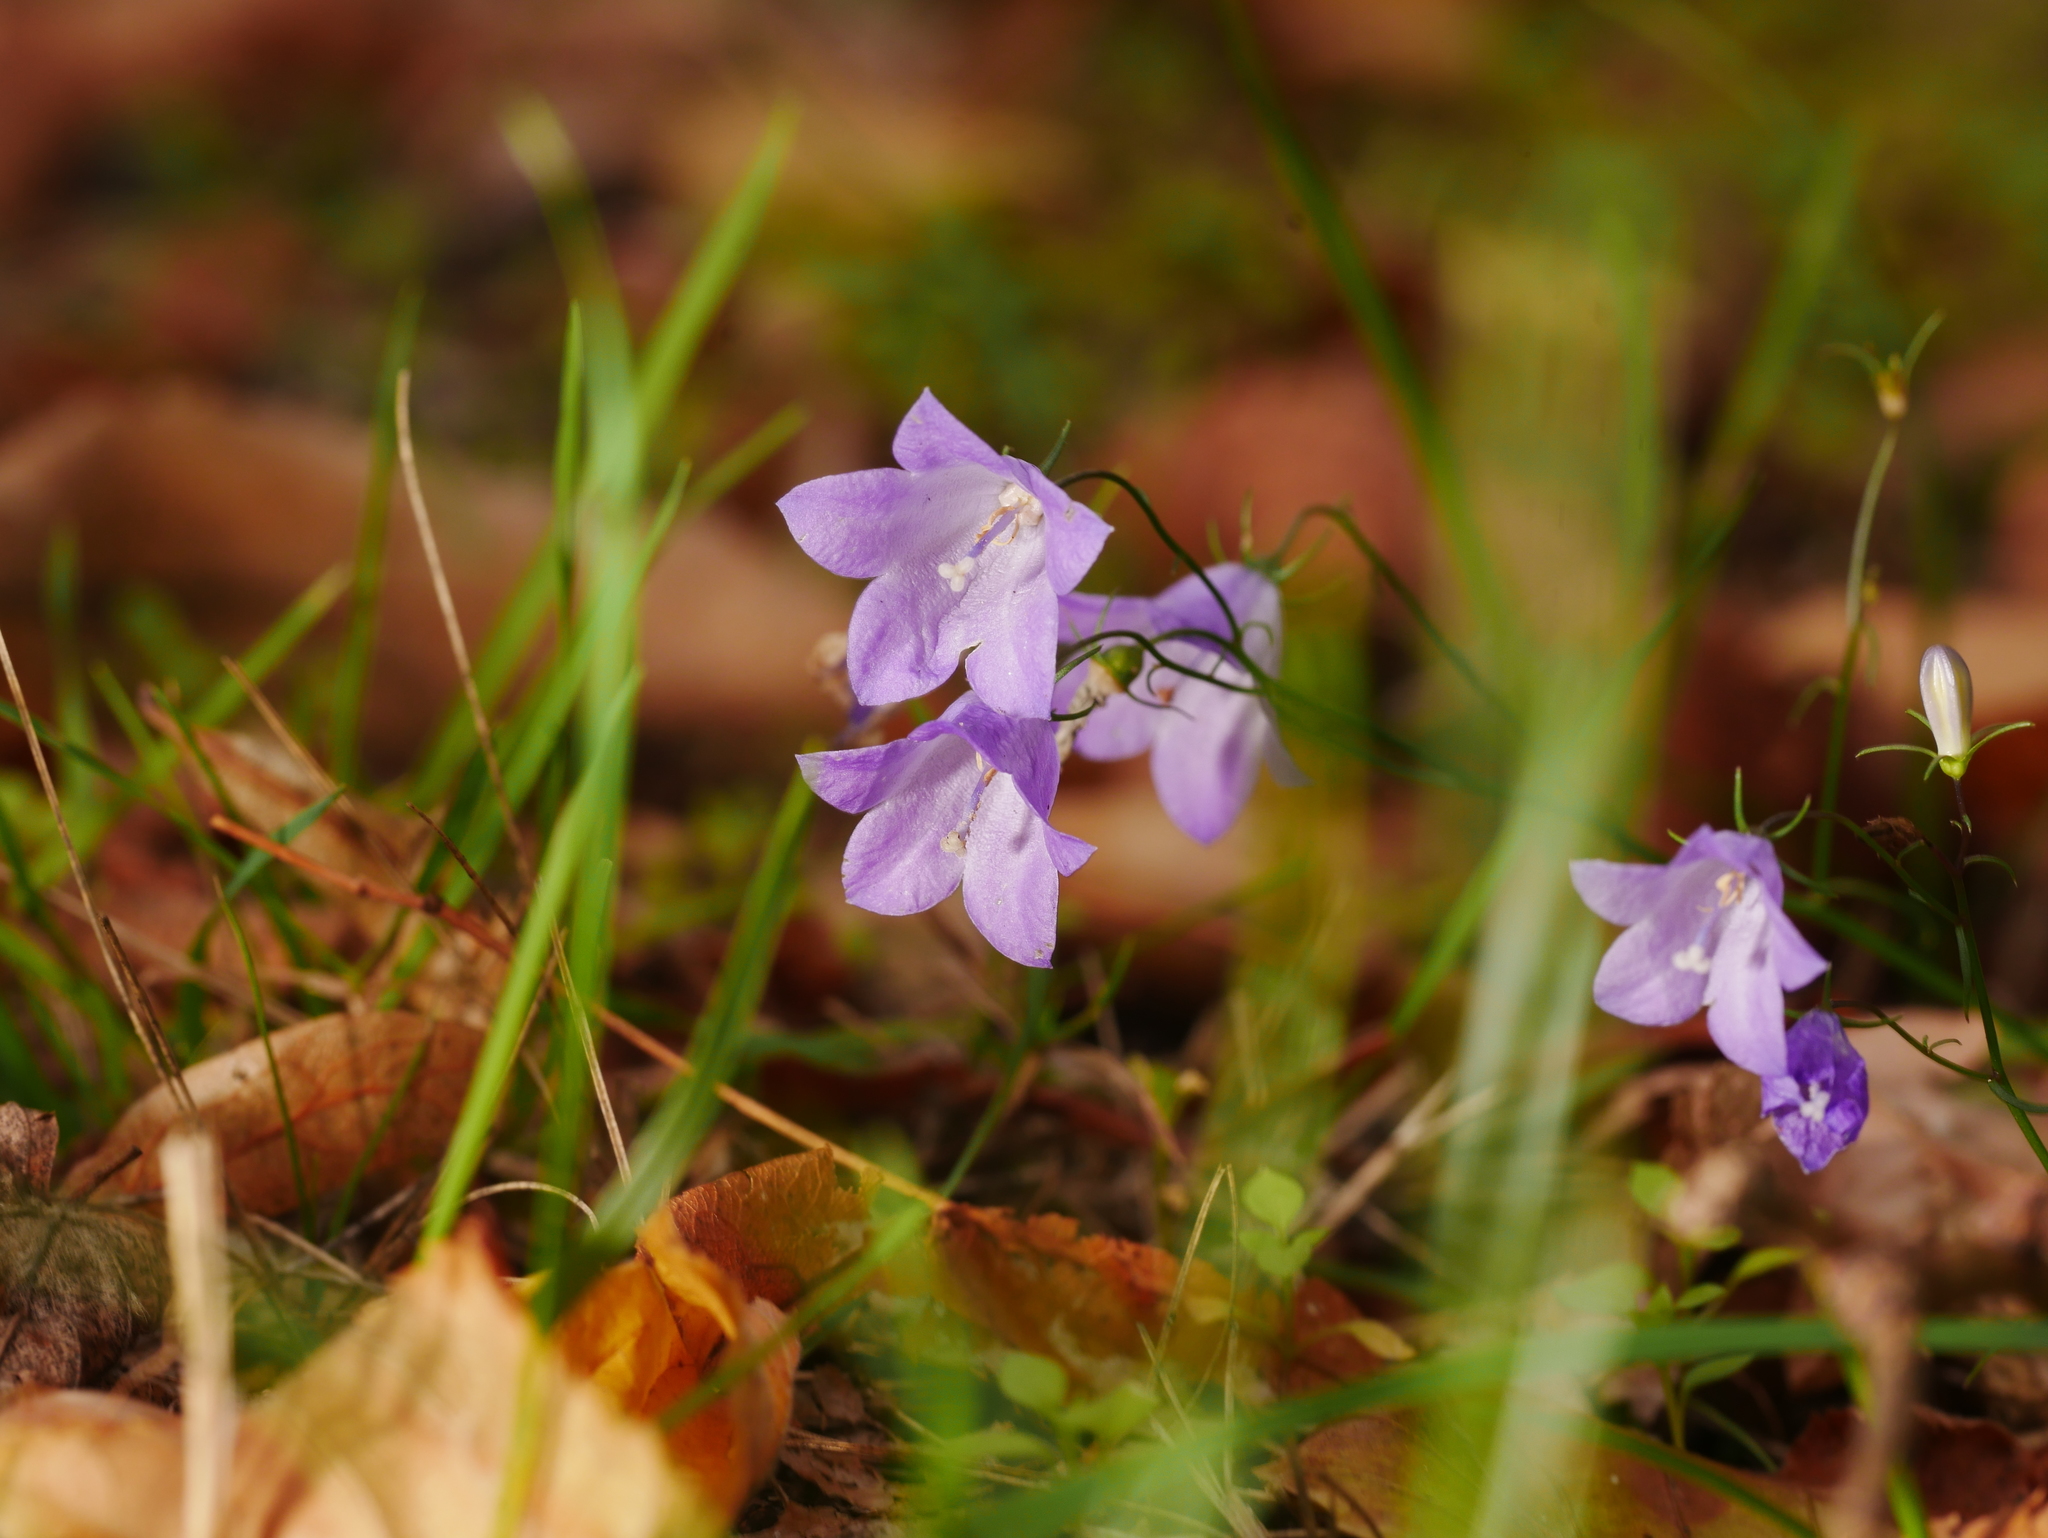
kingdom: Plantae
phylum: Tracheophyta
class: Magnoliopsida
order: Asterales
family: Campanulaceae
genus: Campanula
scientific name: Campanula rotundifolia
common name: Harebell
